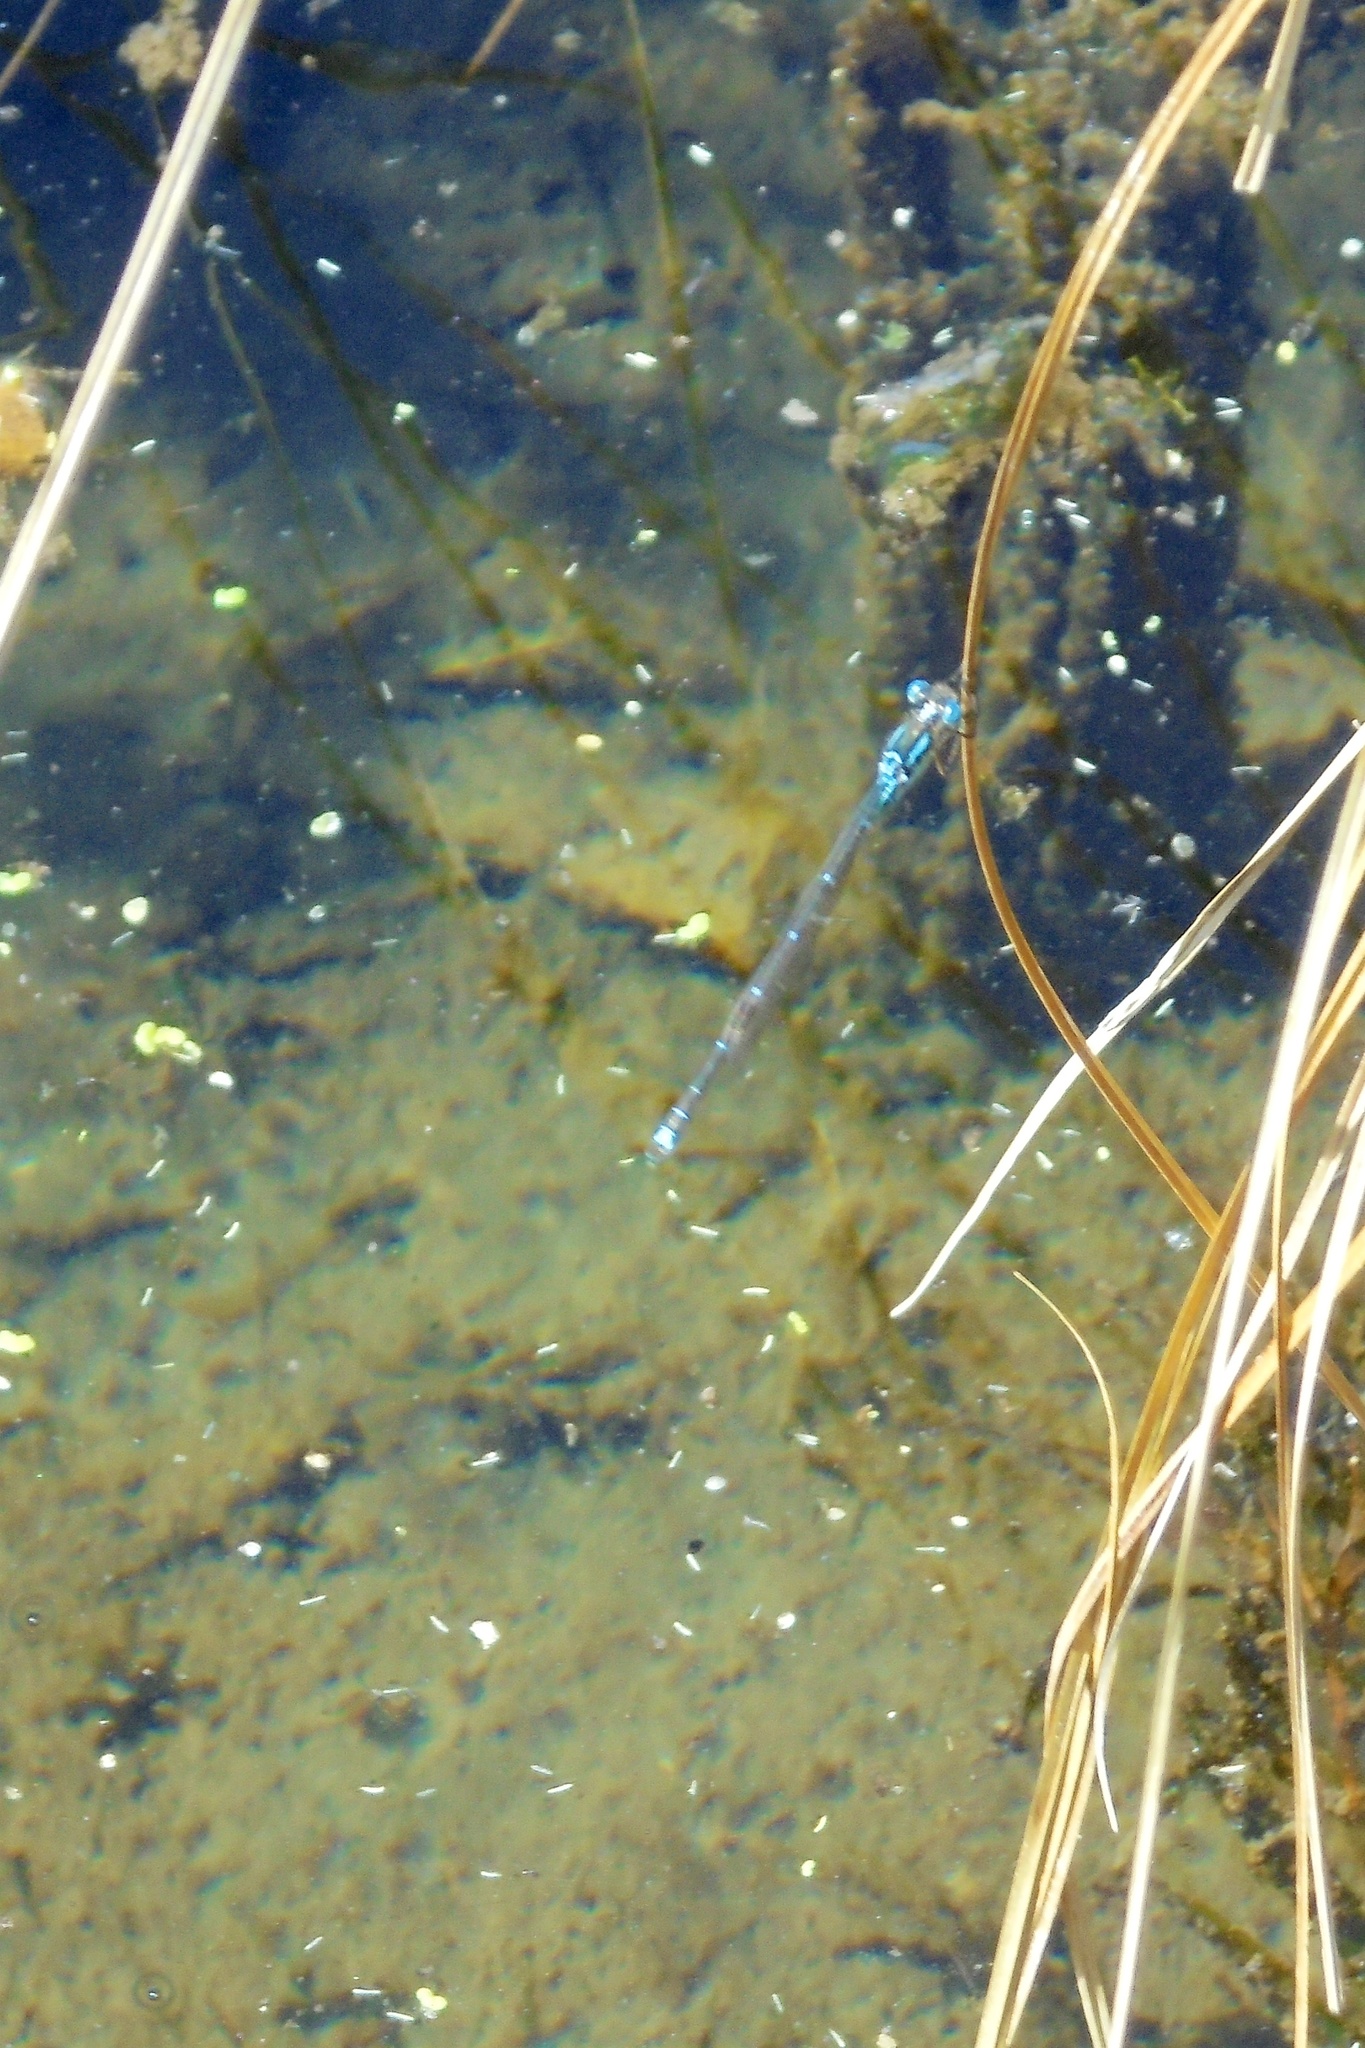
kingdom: Animalia
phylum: Arthropoda
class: Insecta
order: Odonata
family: Lestidae
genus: Austrolestes
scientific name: Austrolestes colensonis
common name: Blue damselfly
